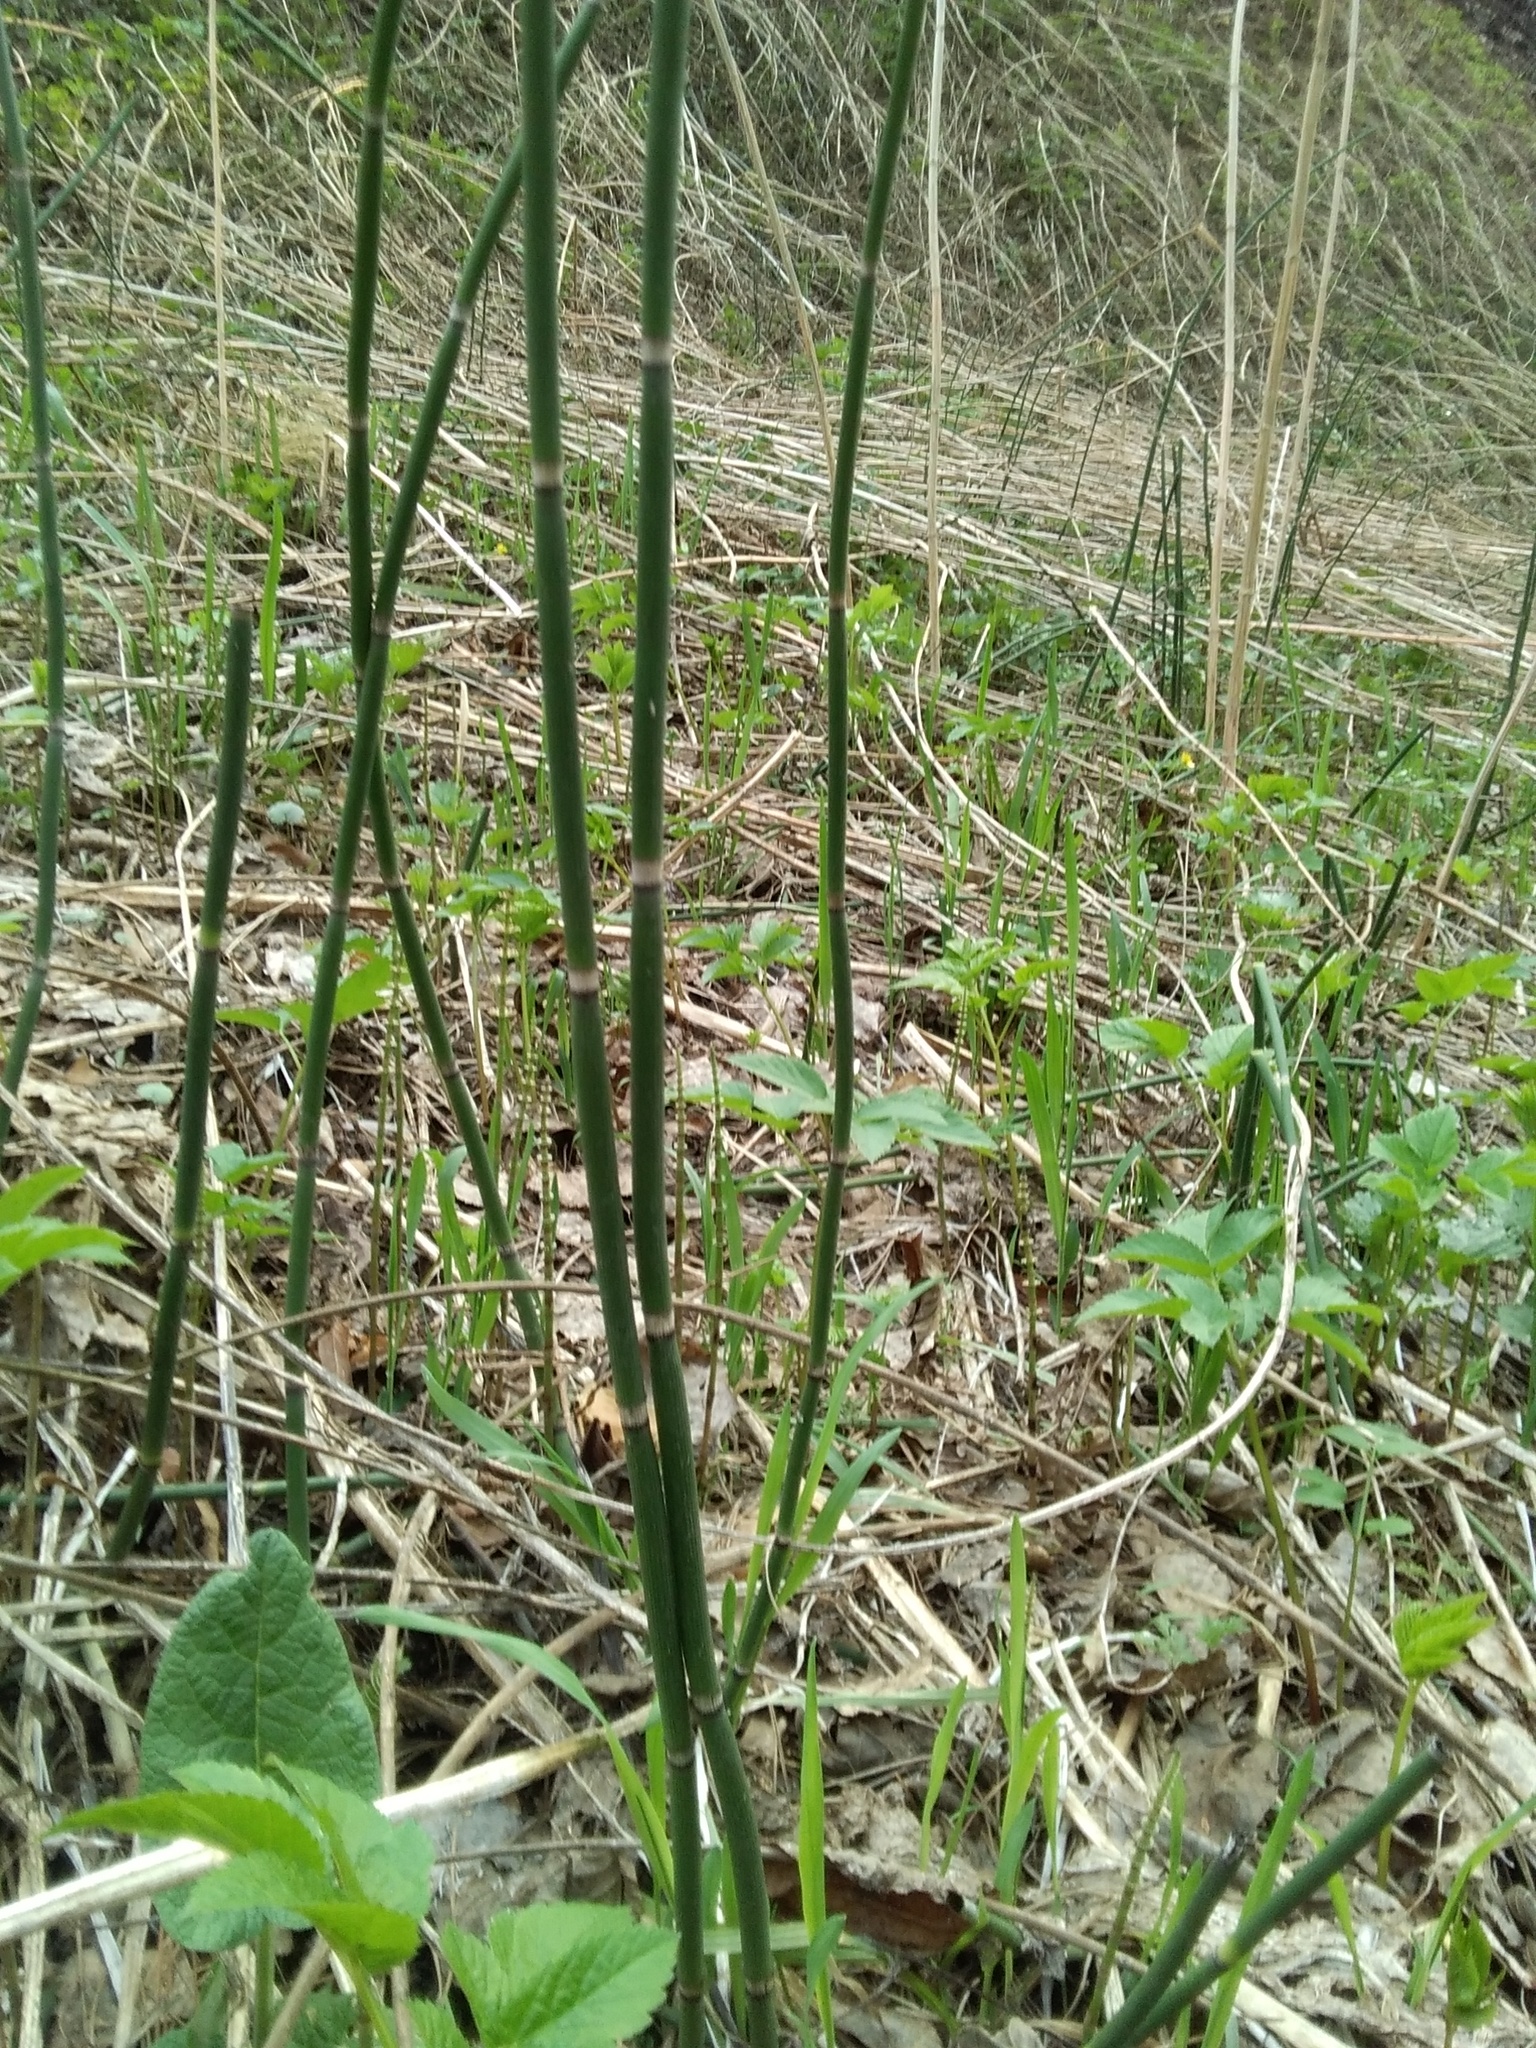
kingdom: Plantae
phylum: Tracheophyta
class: Polypodiopsida
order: Equisetales
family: Equisetaceae
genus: Equisetum
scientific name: Equisetum hyemale
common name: Rough horsetail
